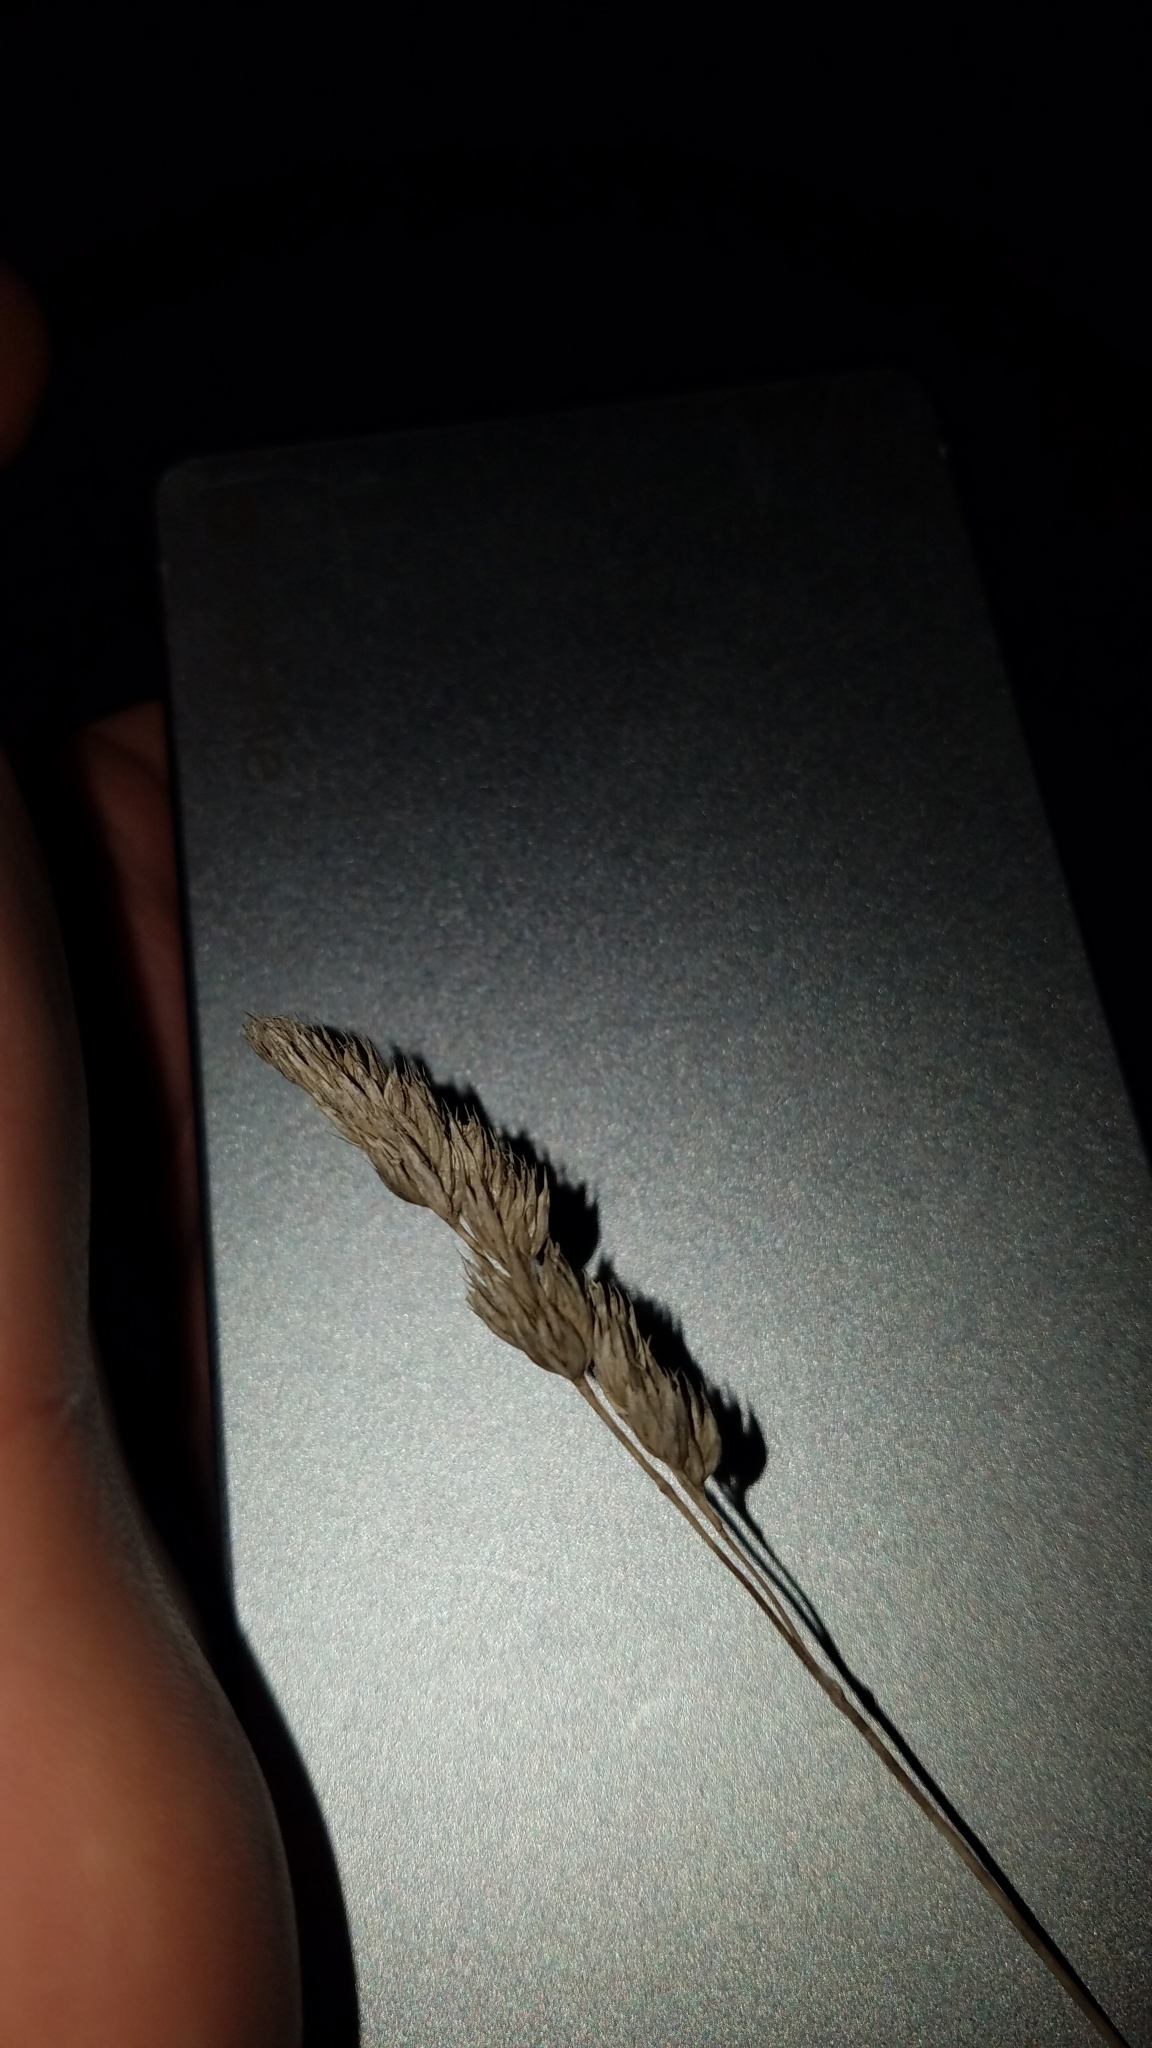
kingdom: Plantae
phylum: Tracheophyta
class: Liliopsida
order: Poales
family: Poaceae
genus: Dactylis
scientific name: Dactylis glomerata
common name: Orchardgrass
